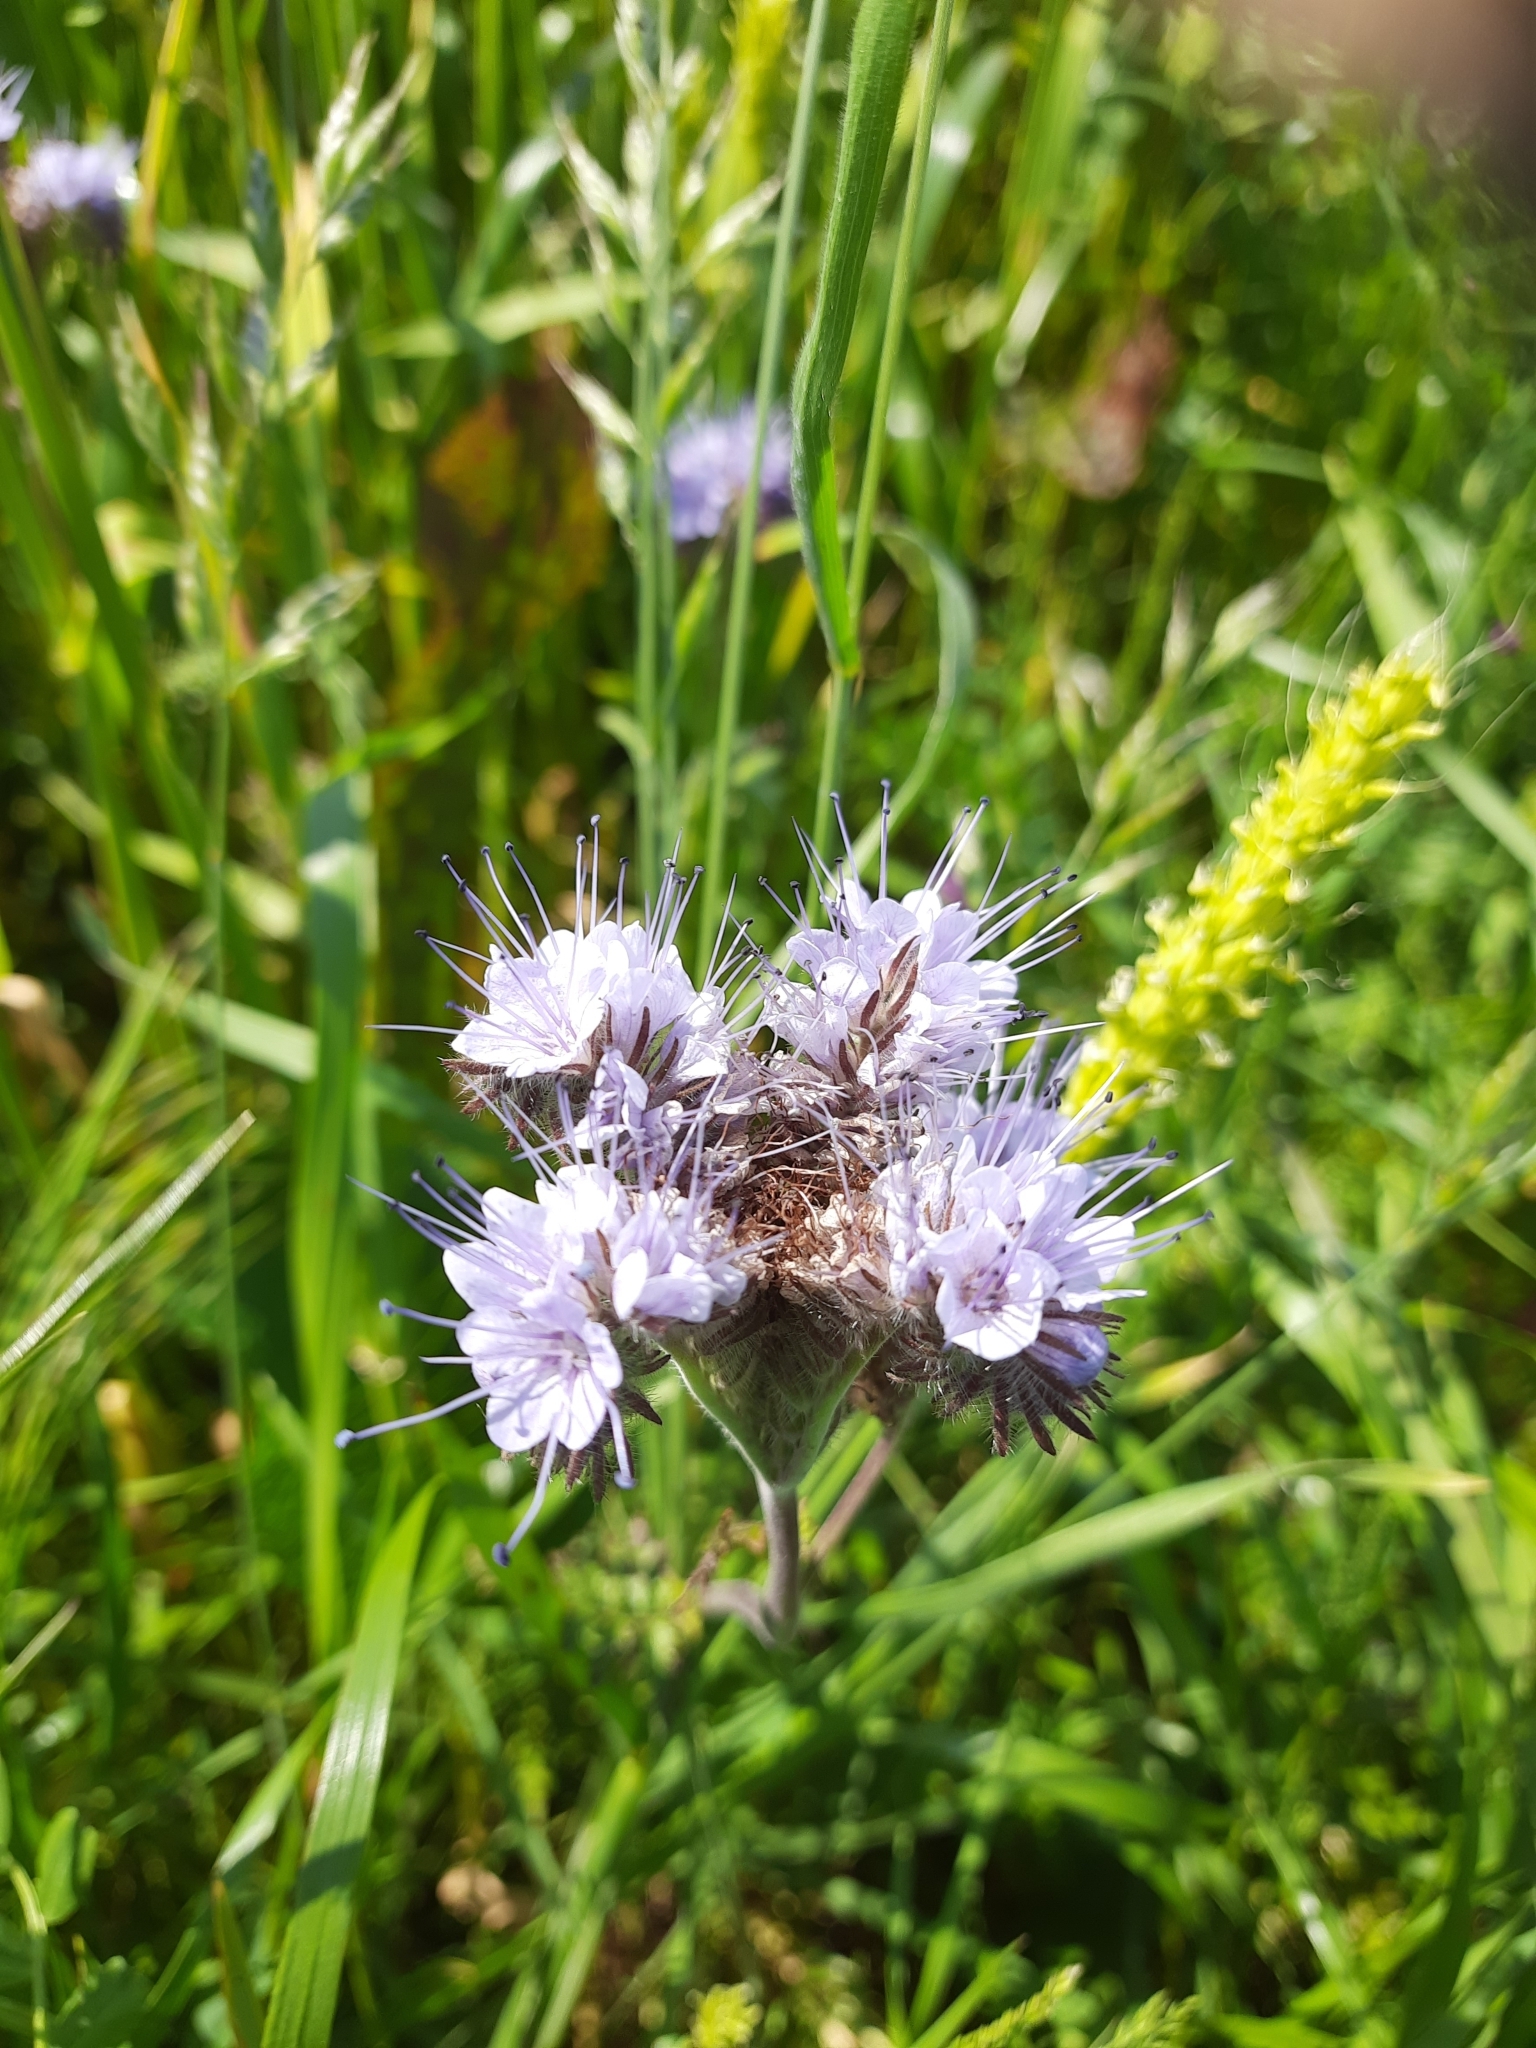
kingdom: Plantae
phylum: Tracheophyta
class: Magnoliopsida
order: Boraginales
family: Hydrophyllaceae
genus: Phacelia
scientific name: Phacelia tanacetifolia
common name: Phacelia
